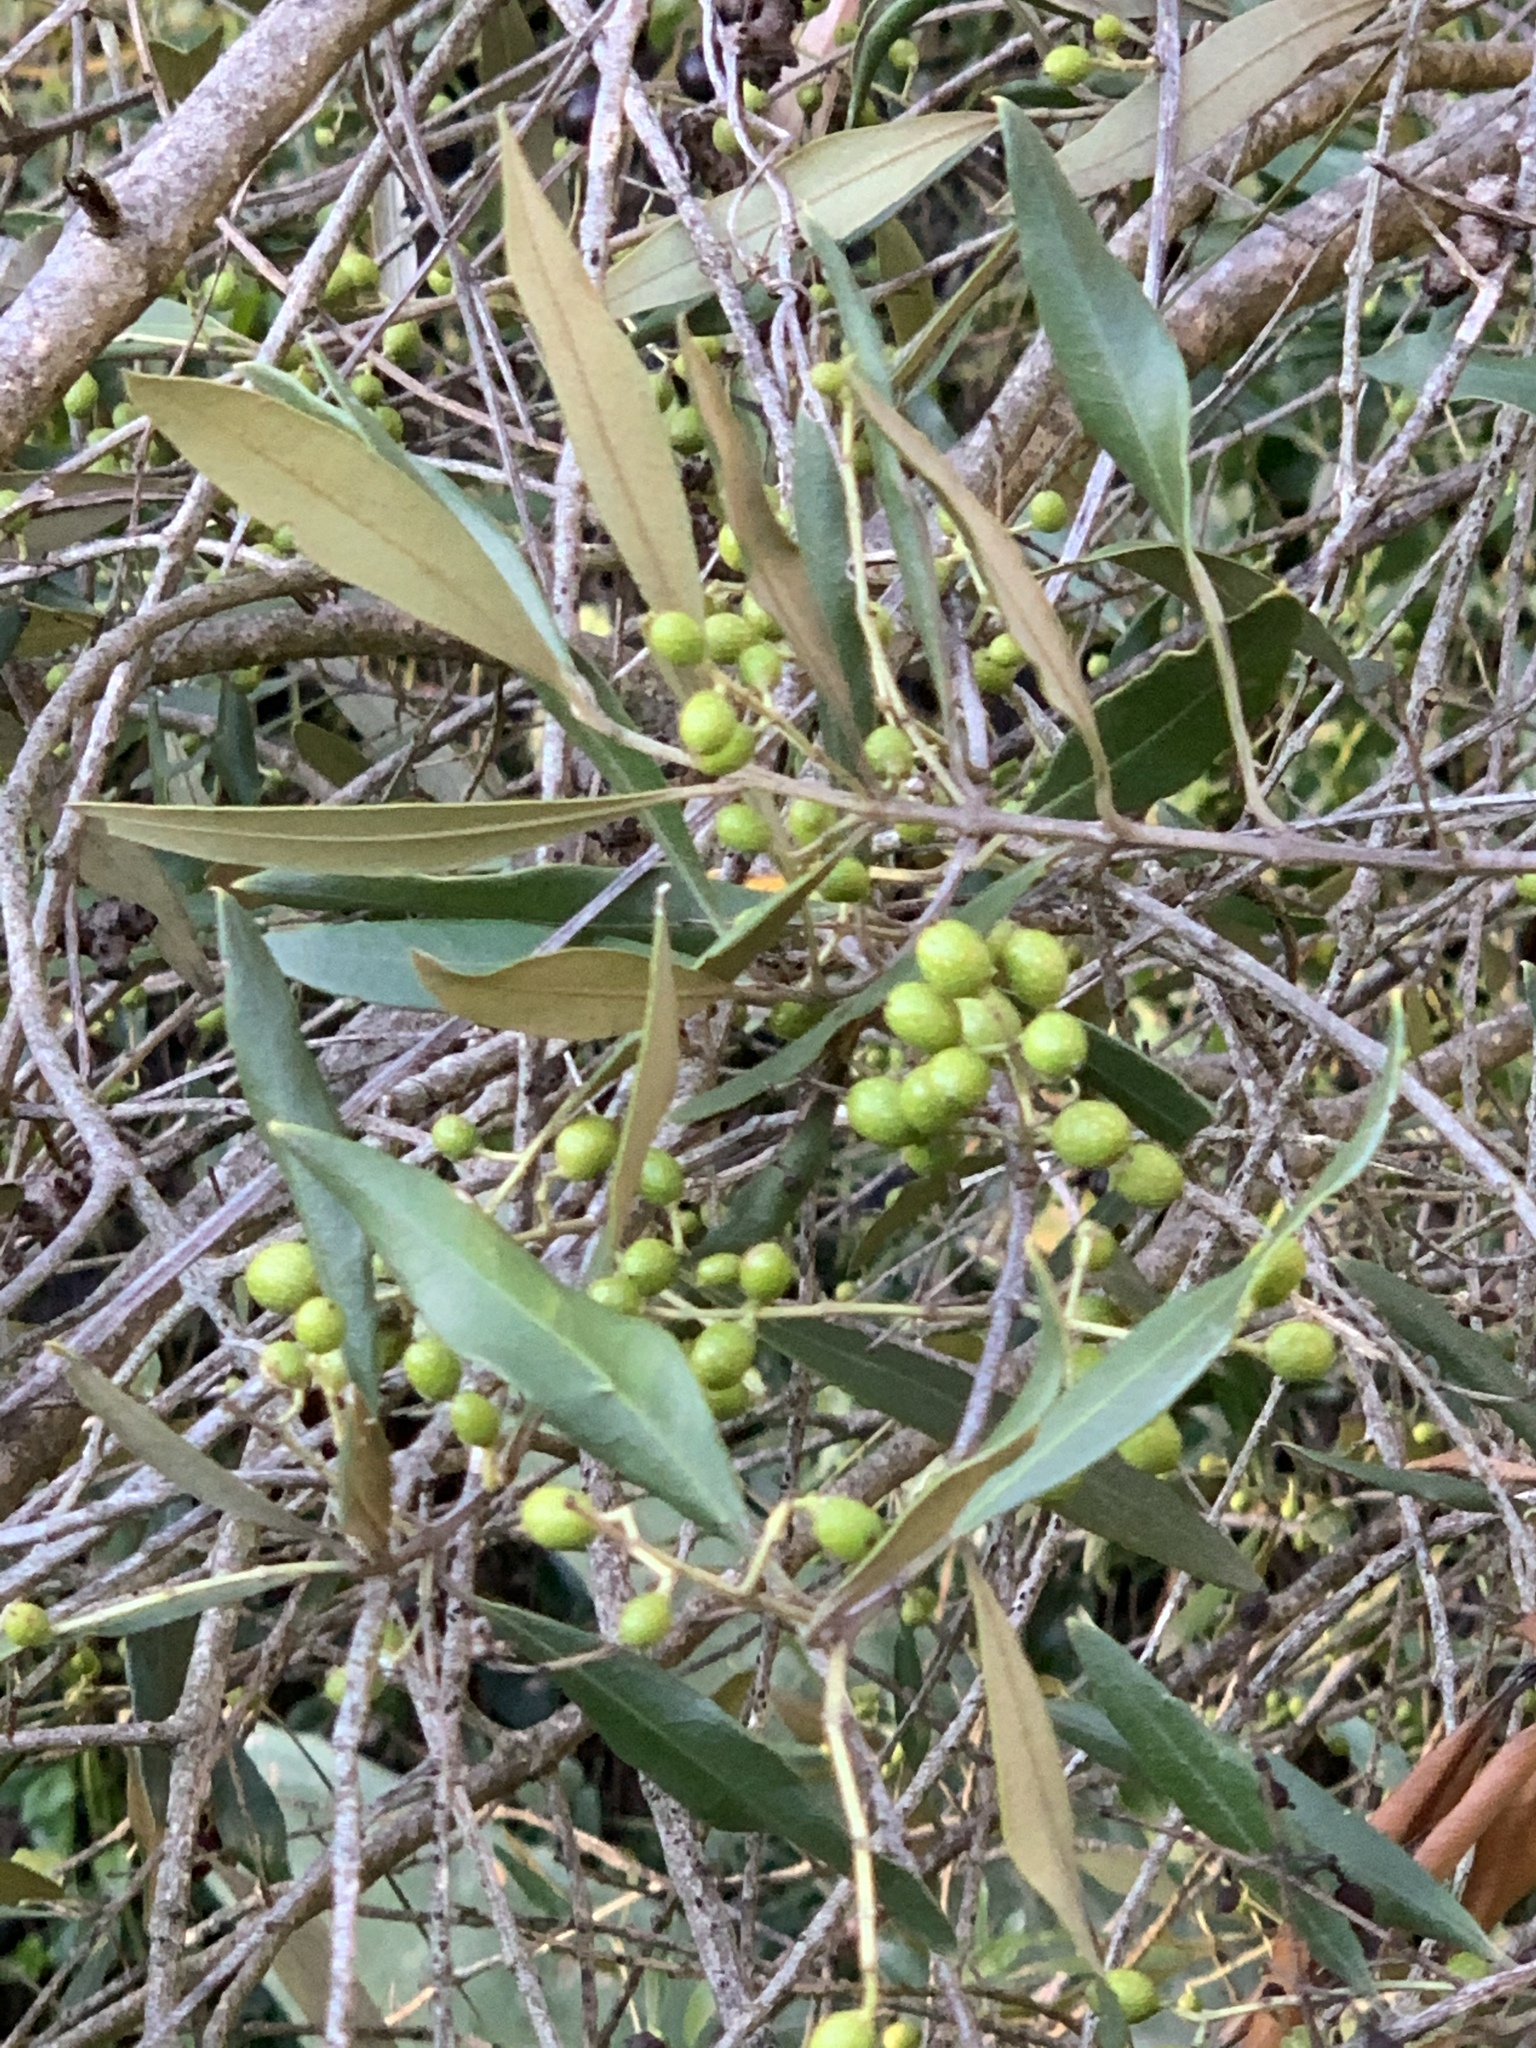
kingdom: Plantae
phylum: Tracheophyta
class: Magnoliopsida
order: Lamiales
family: Oleaceae
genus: Olea
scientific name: Olea europaea
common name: Olive
